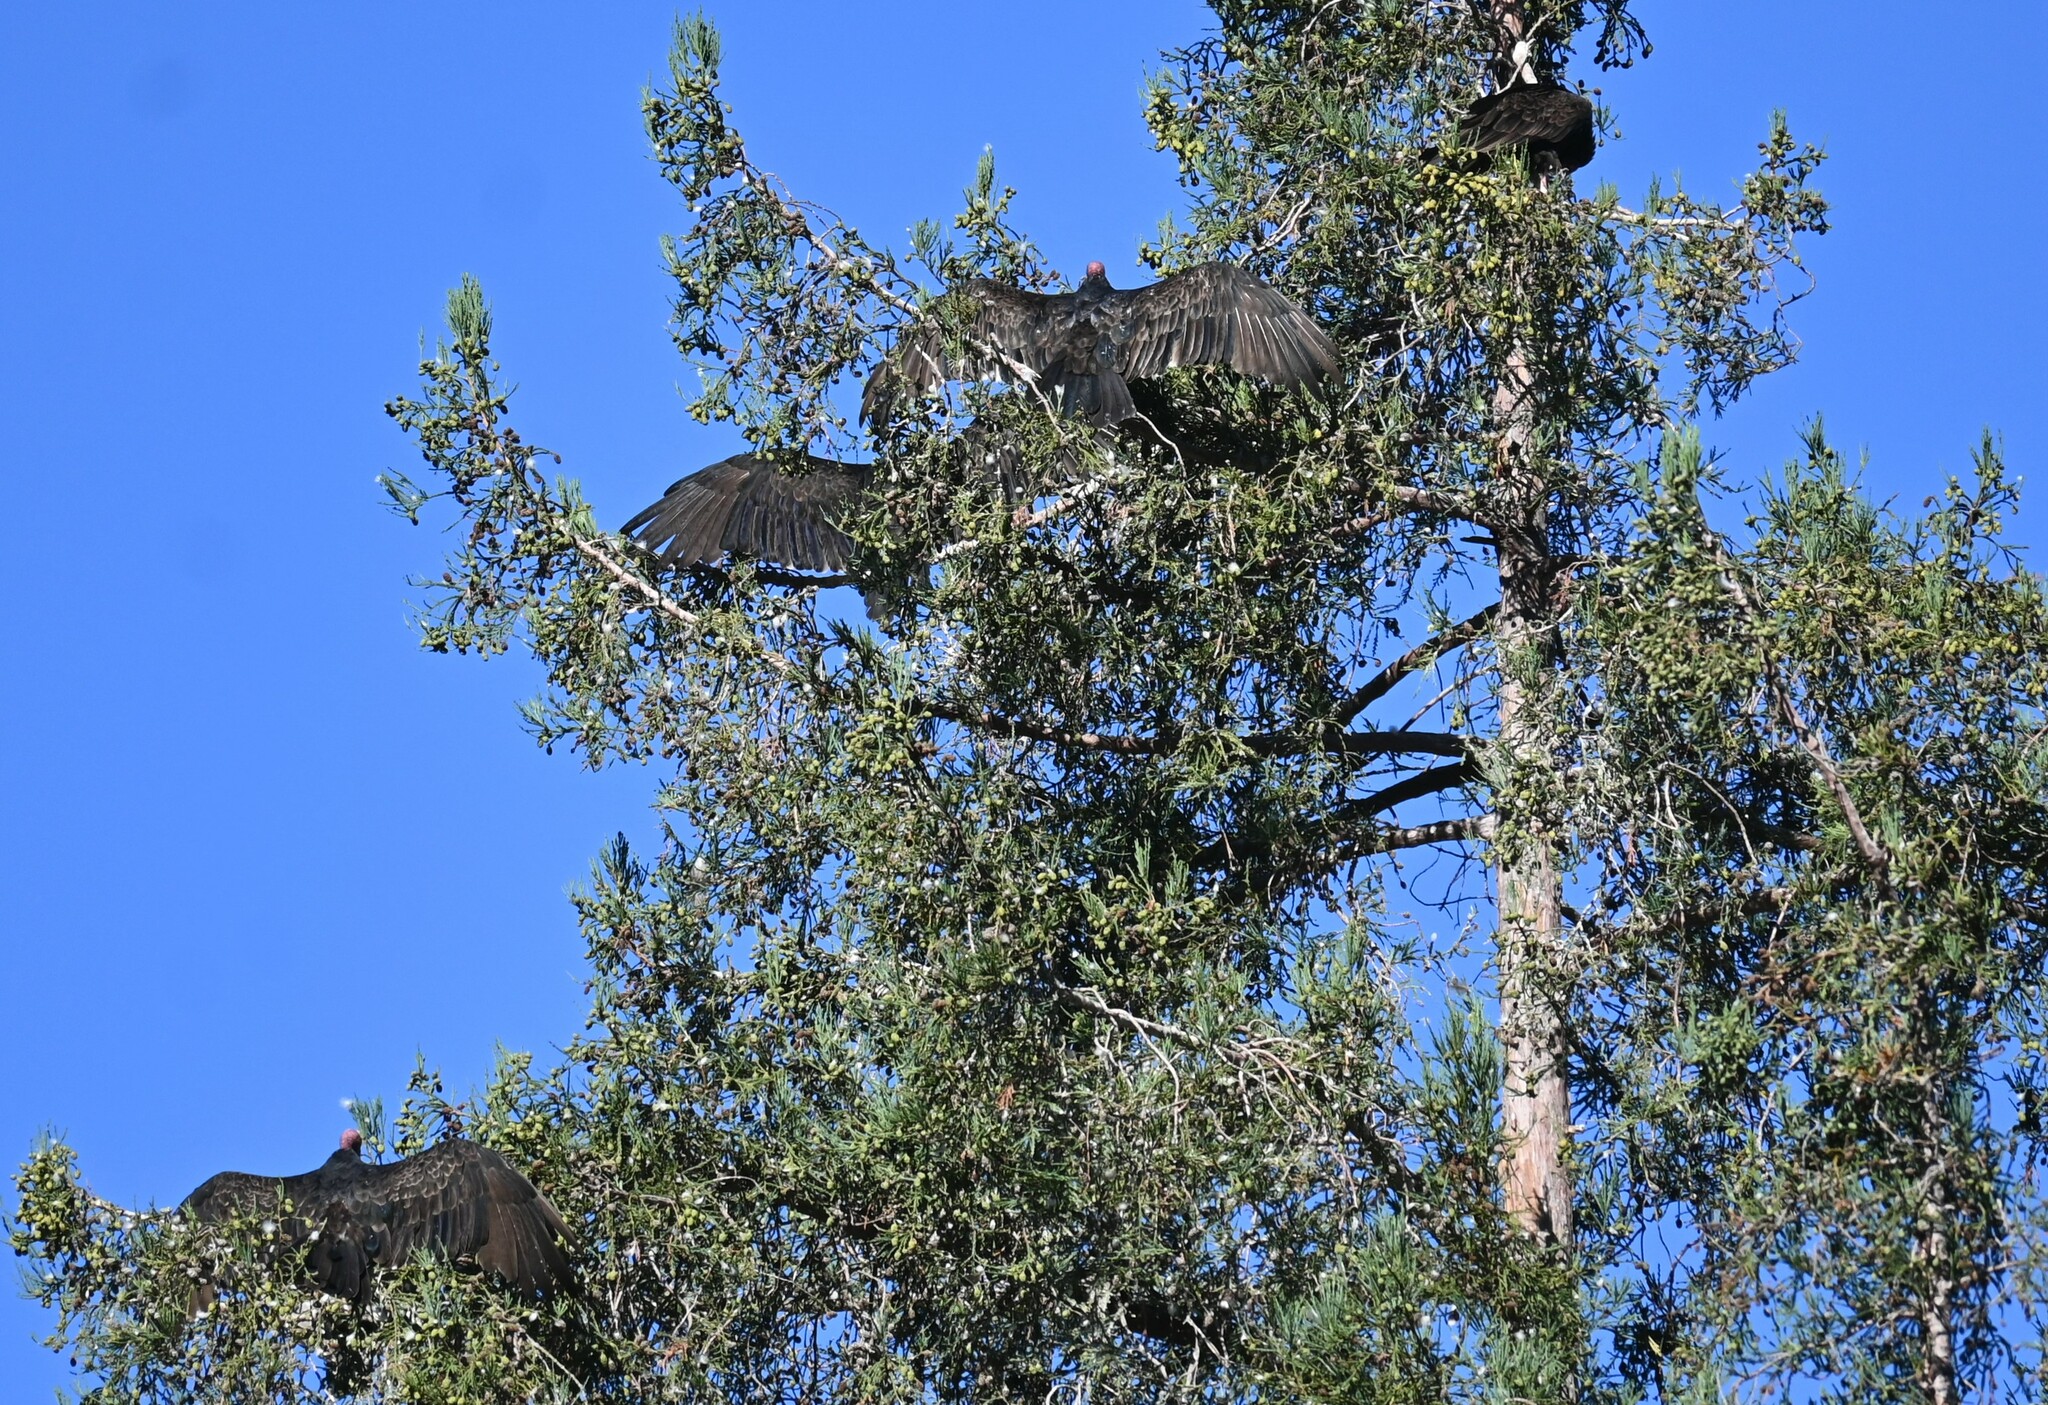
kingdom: Animalia
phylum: Chordata
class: Aves
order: Accipitriformes
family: Cathartidae
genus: Cathartes
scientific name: Cathartes aura
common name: Turkey vulture
